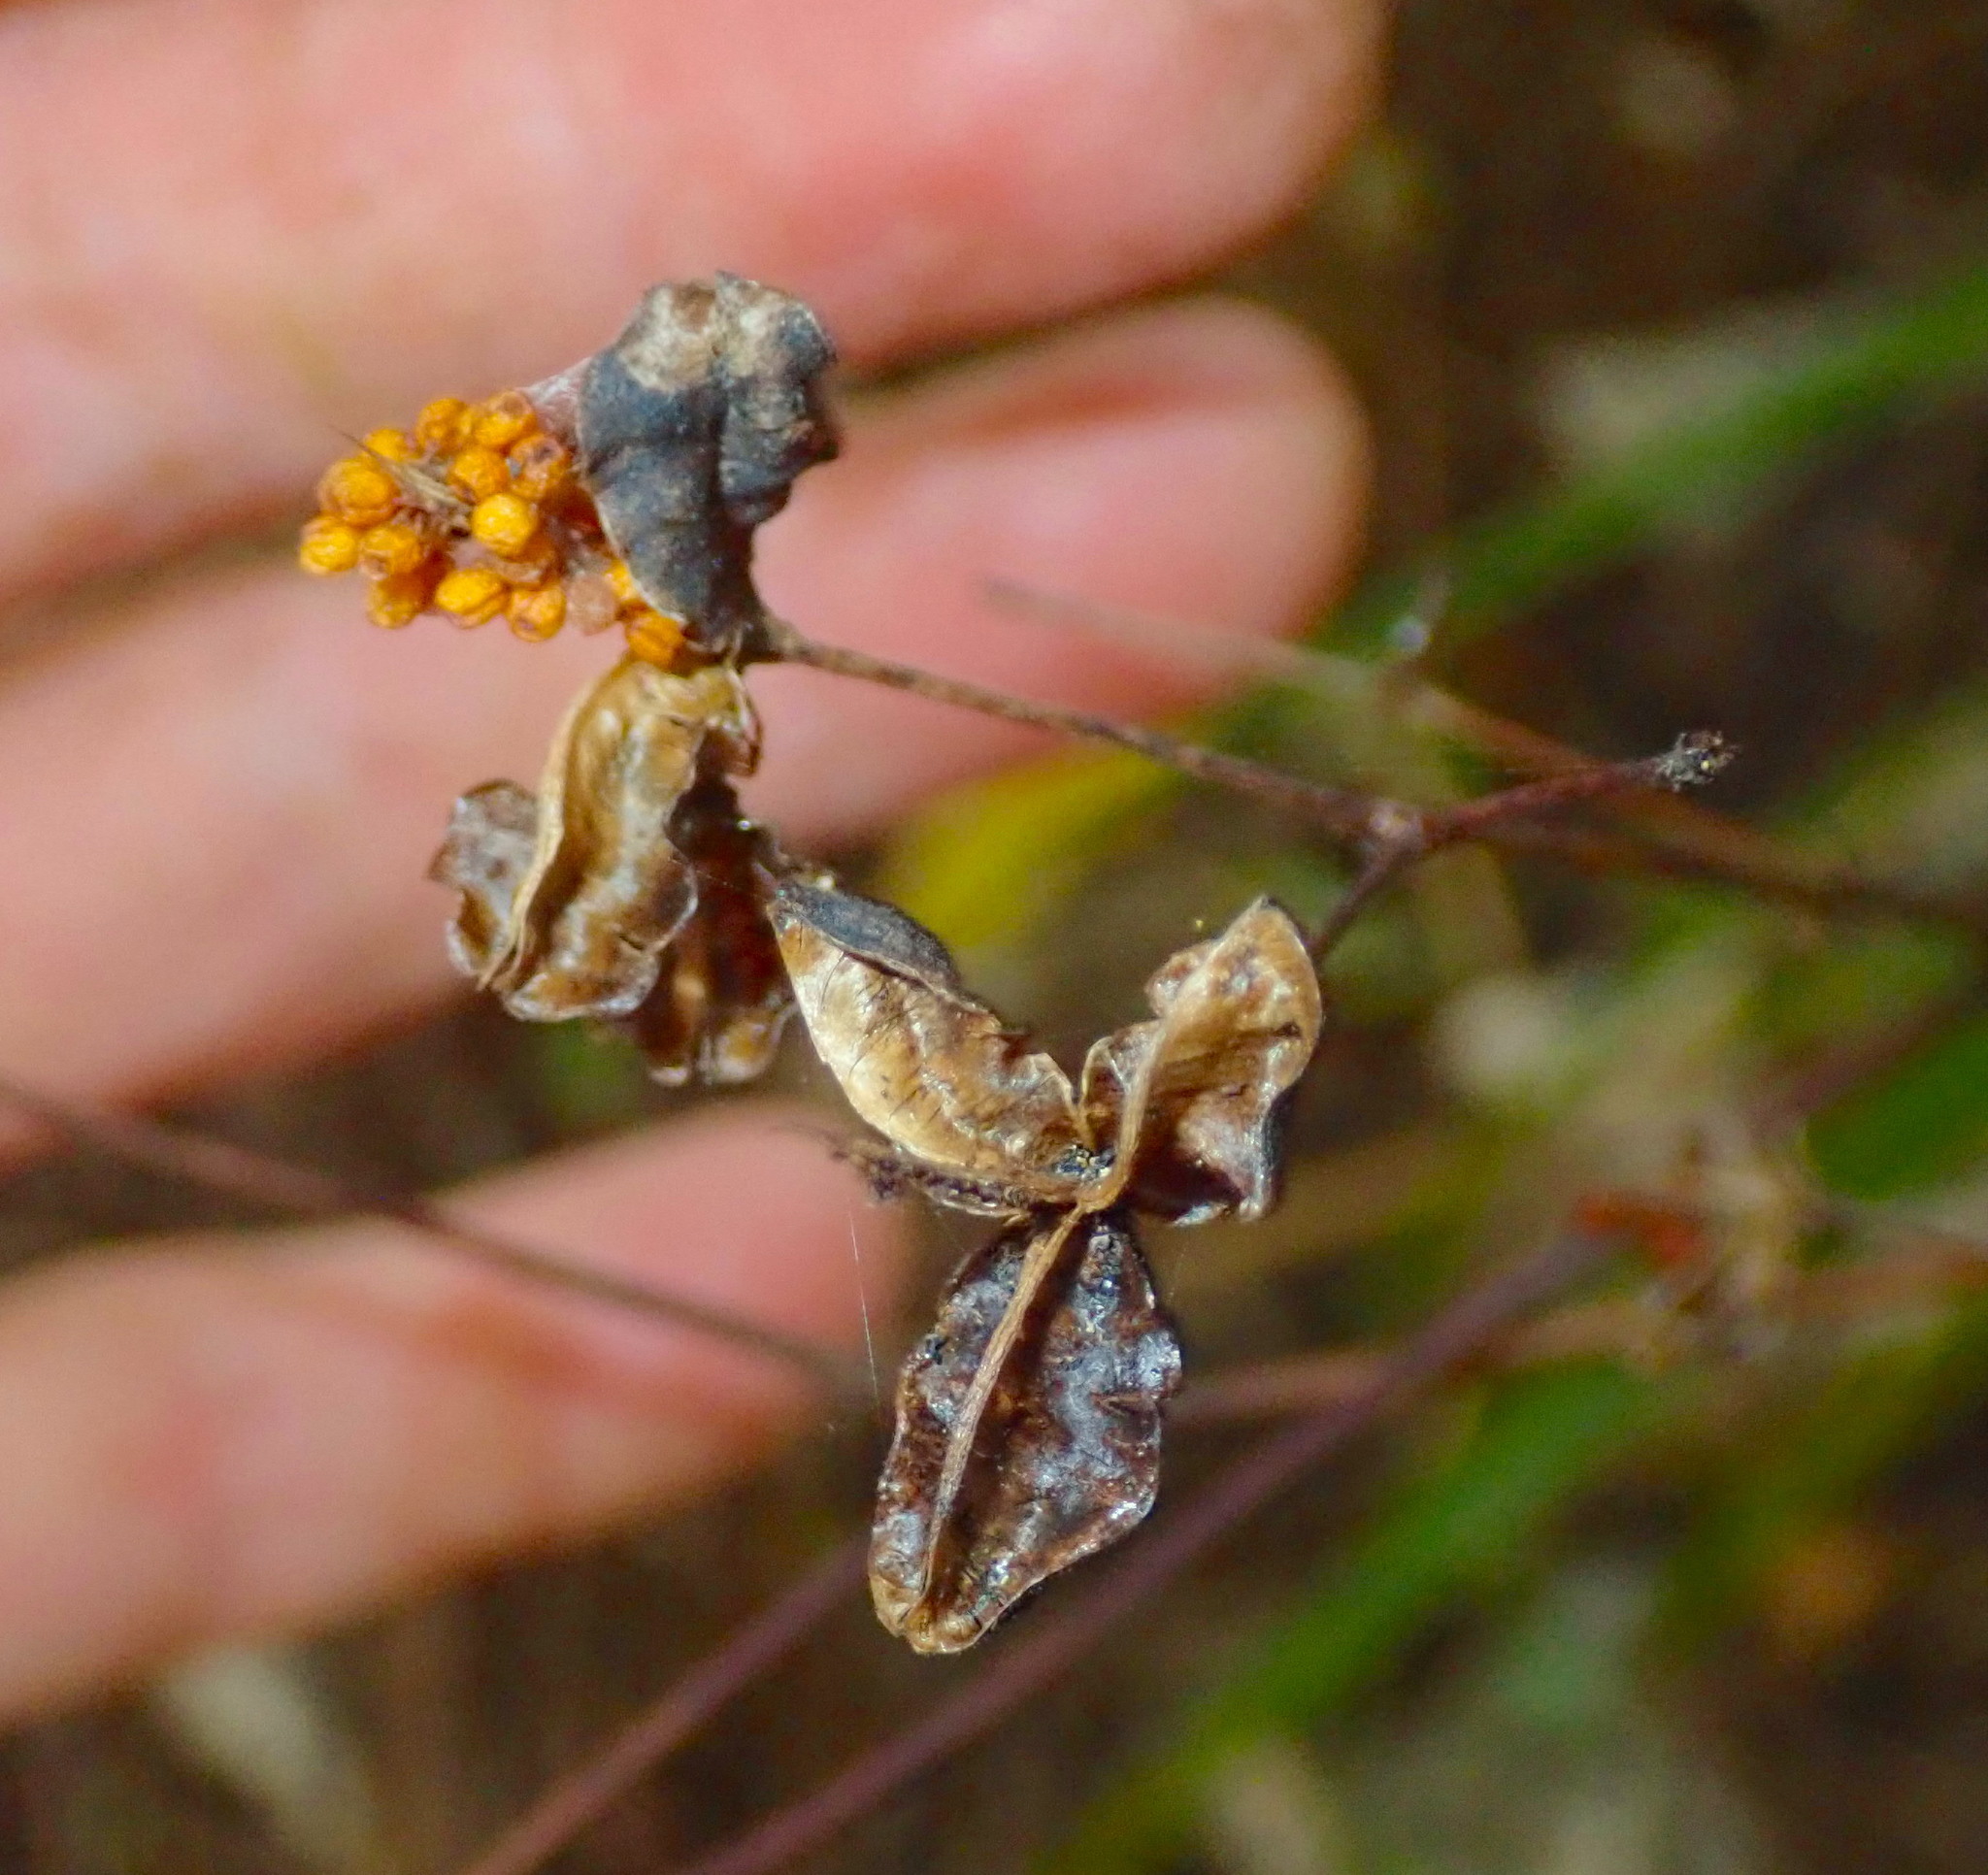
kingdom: Plantae
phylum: Tracheophyta
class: Liliopsida
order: Asparagales
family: Iridaceae
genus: Libertia
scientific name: Libertia ixioides
